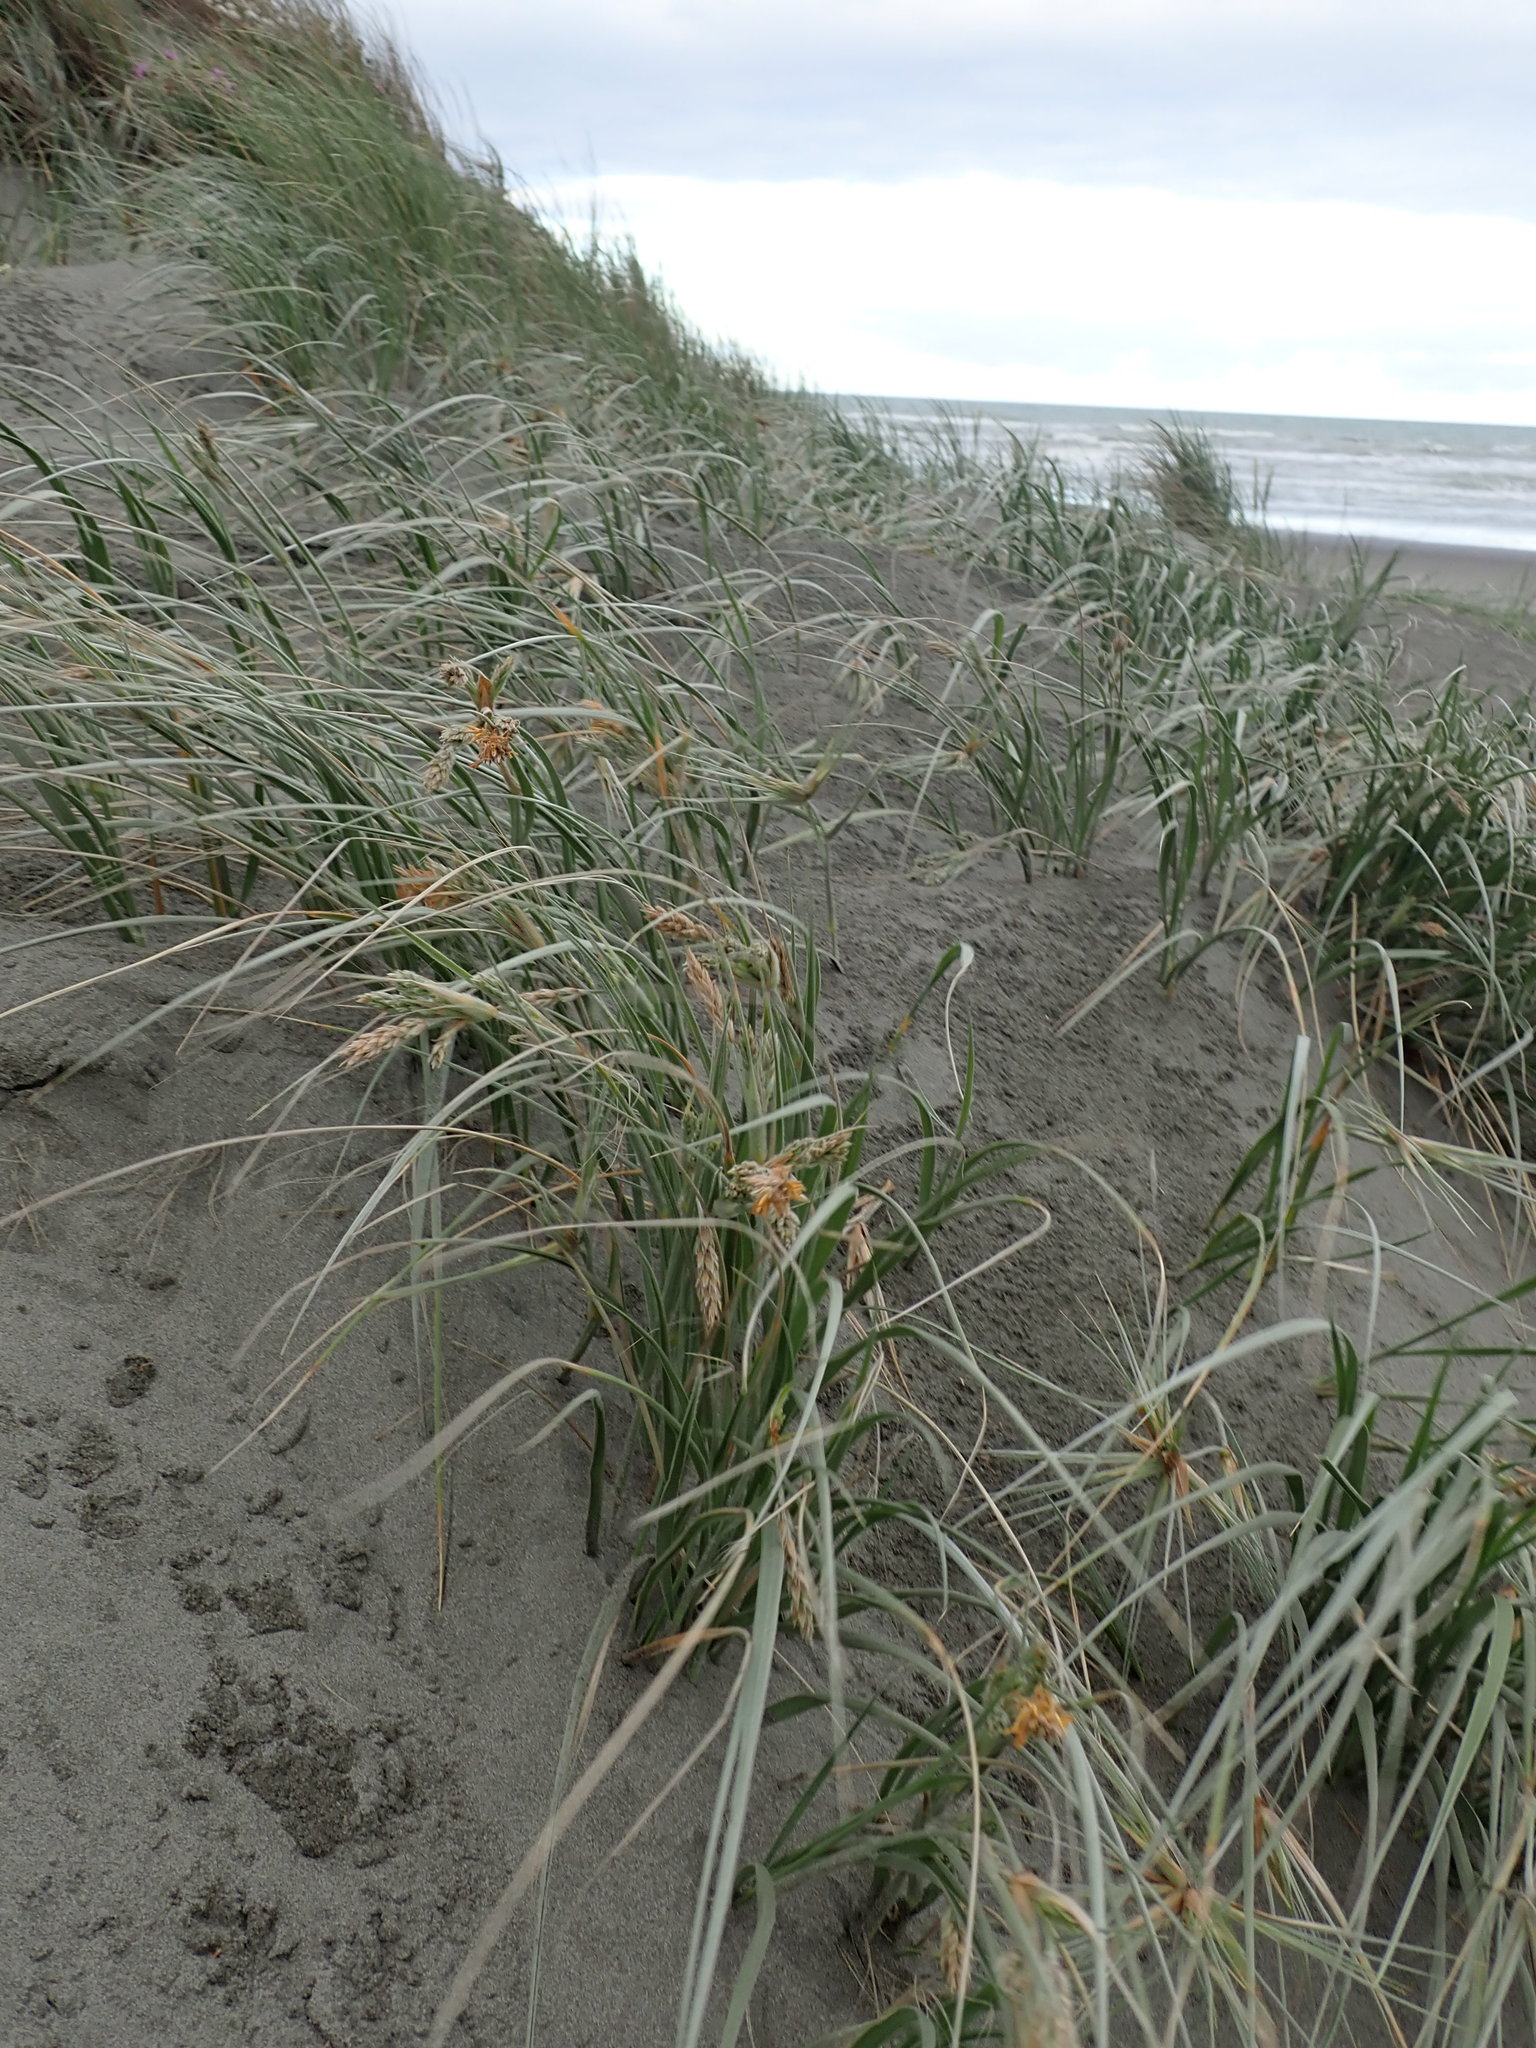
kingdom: Plantae
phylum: Tracheophyta
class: Liliopsida
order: Poales
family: Poaceae
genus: Spinifex
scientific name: Spinifex sericeus
